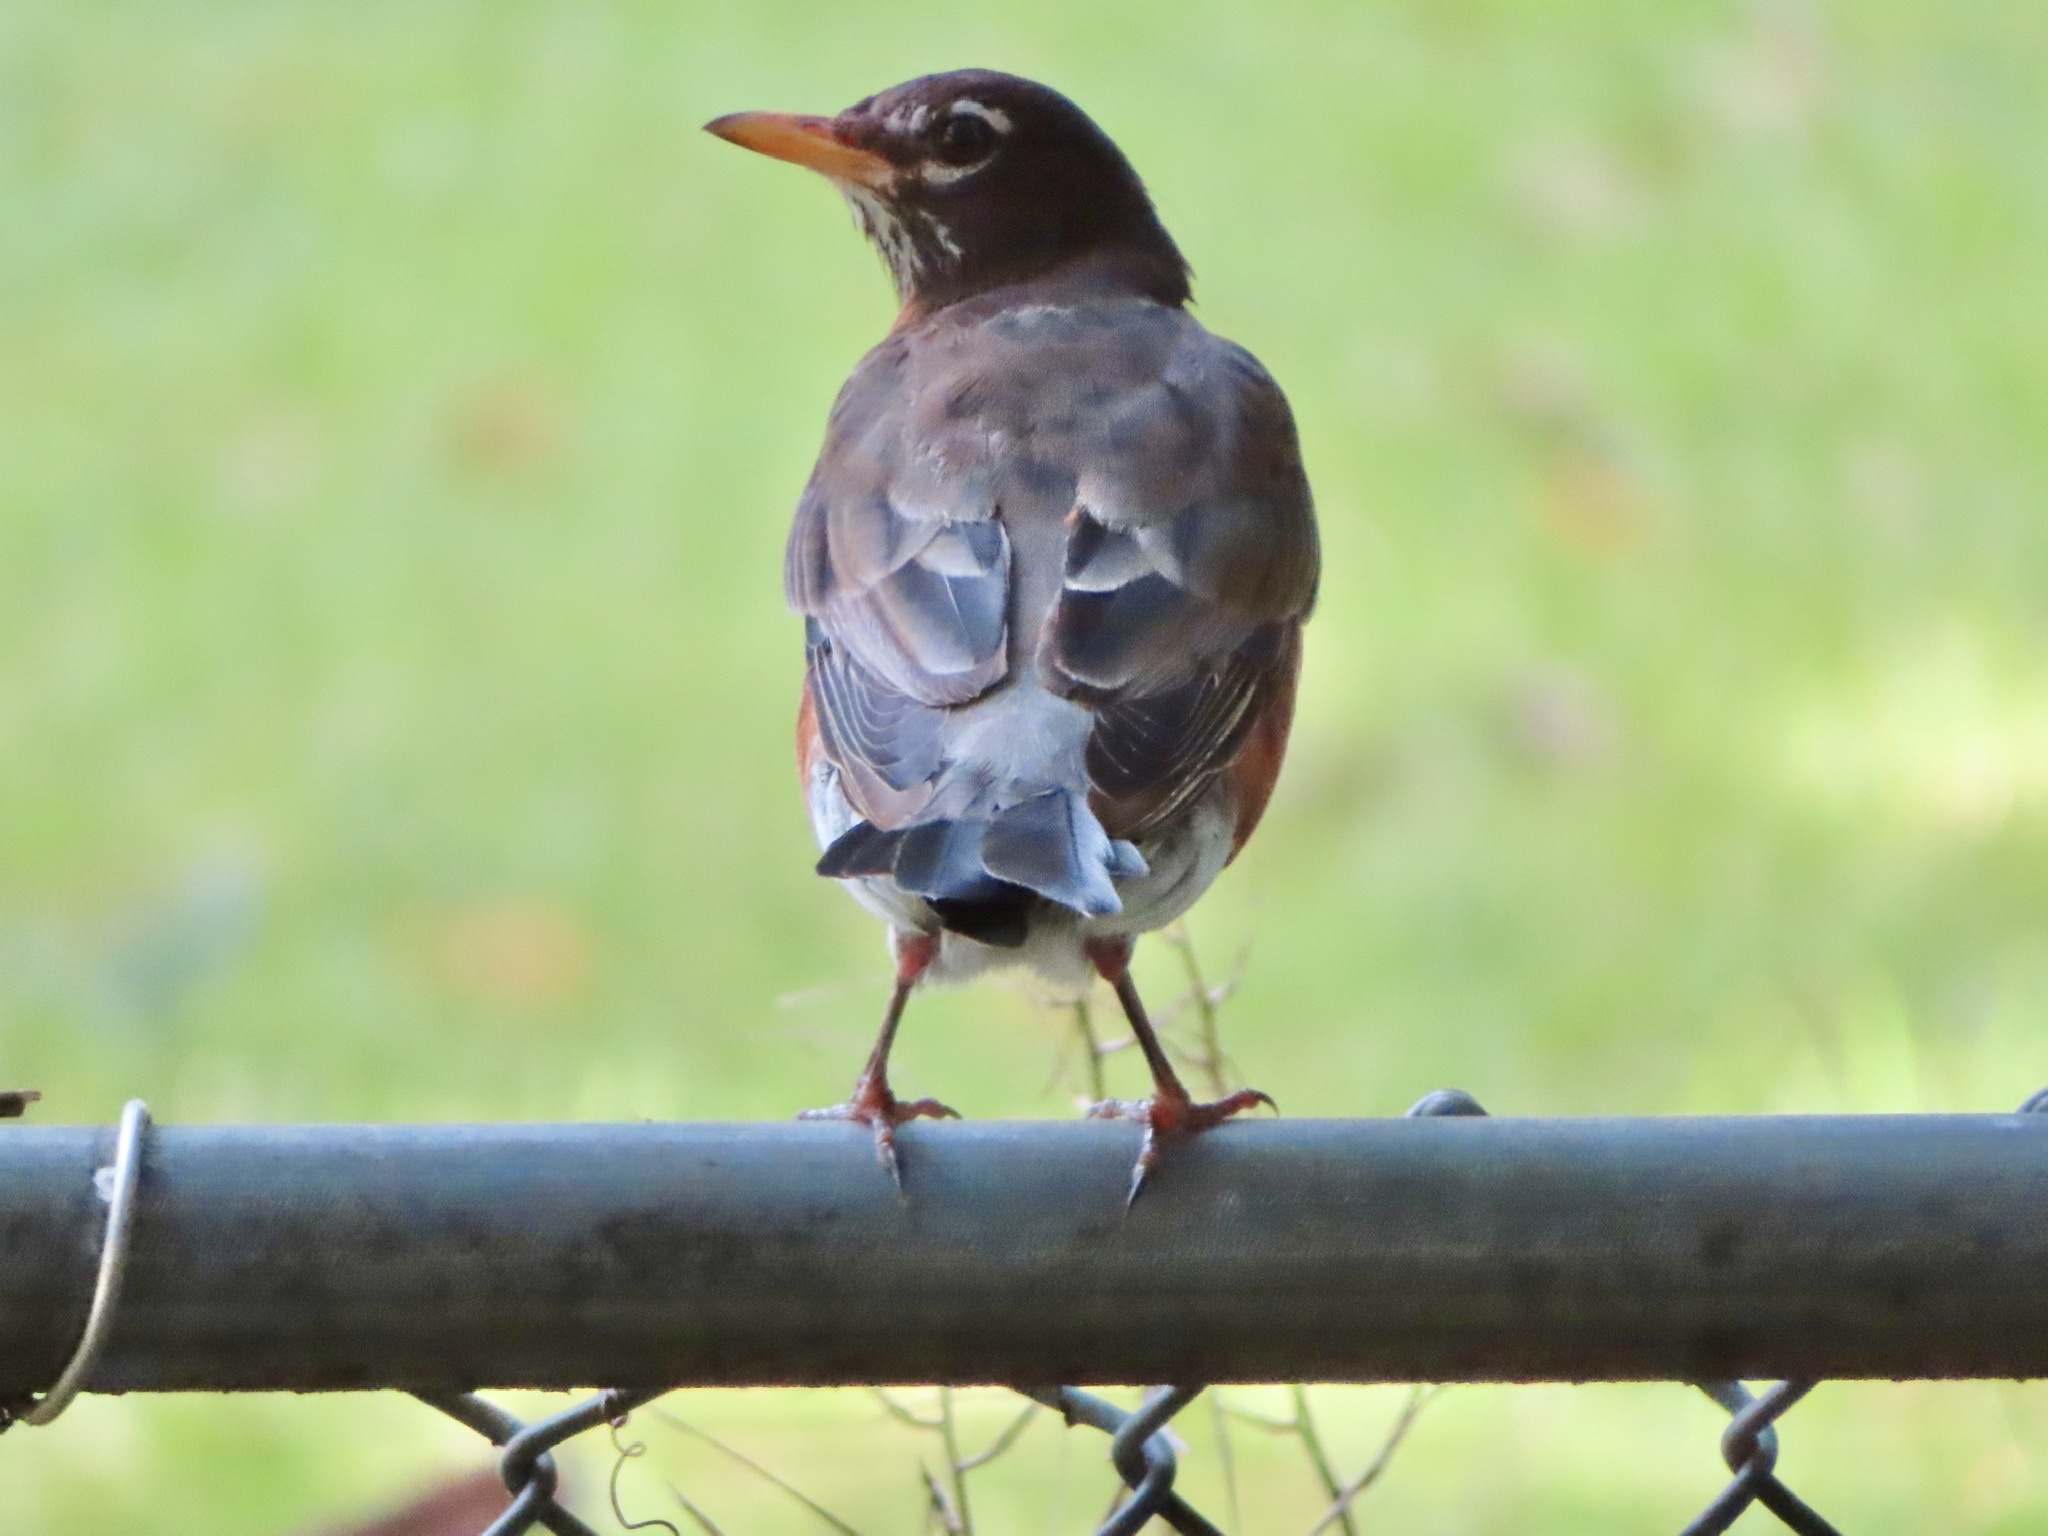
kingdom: Animalia
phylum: Chordata
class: Aves
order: Passeriformes
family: Turdidae
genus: Turdus
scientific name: Turdus migratorius
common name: American robin
